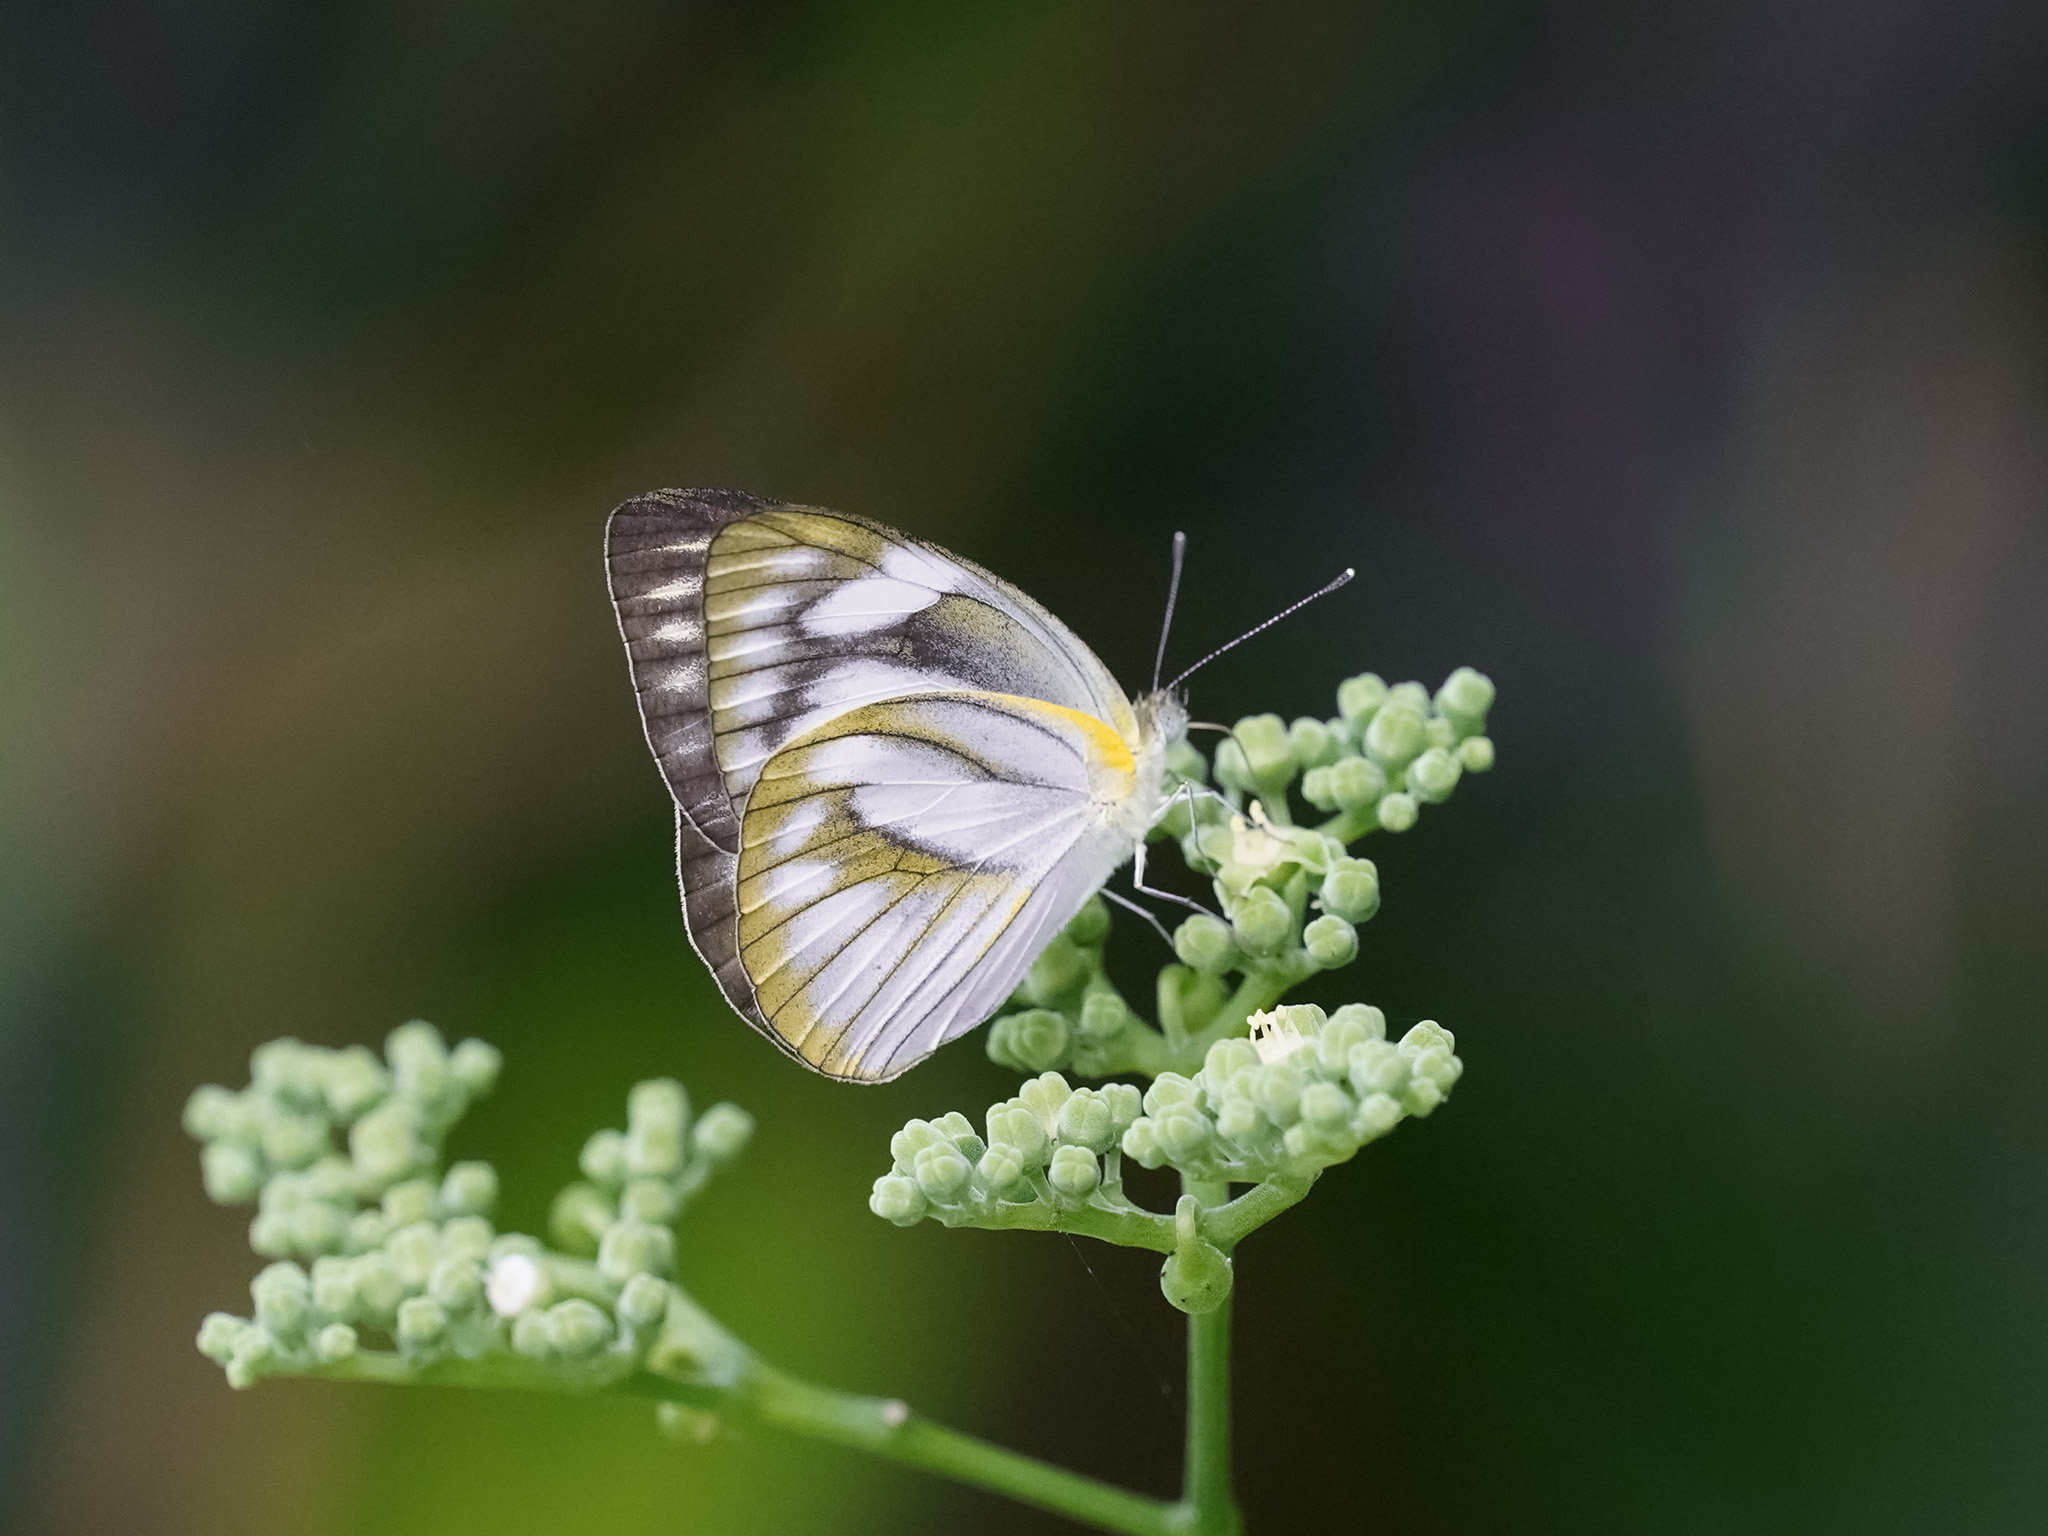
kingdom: Animalia
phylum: Arthropoda
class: Insecta
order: Lepidoptera
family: Pieridae
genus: Appias
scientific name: Appias libythea
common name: Striped albatross
